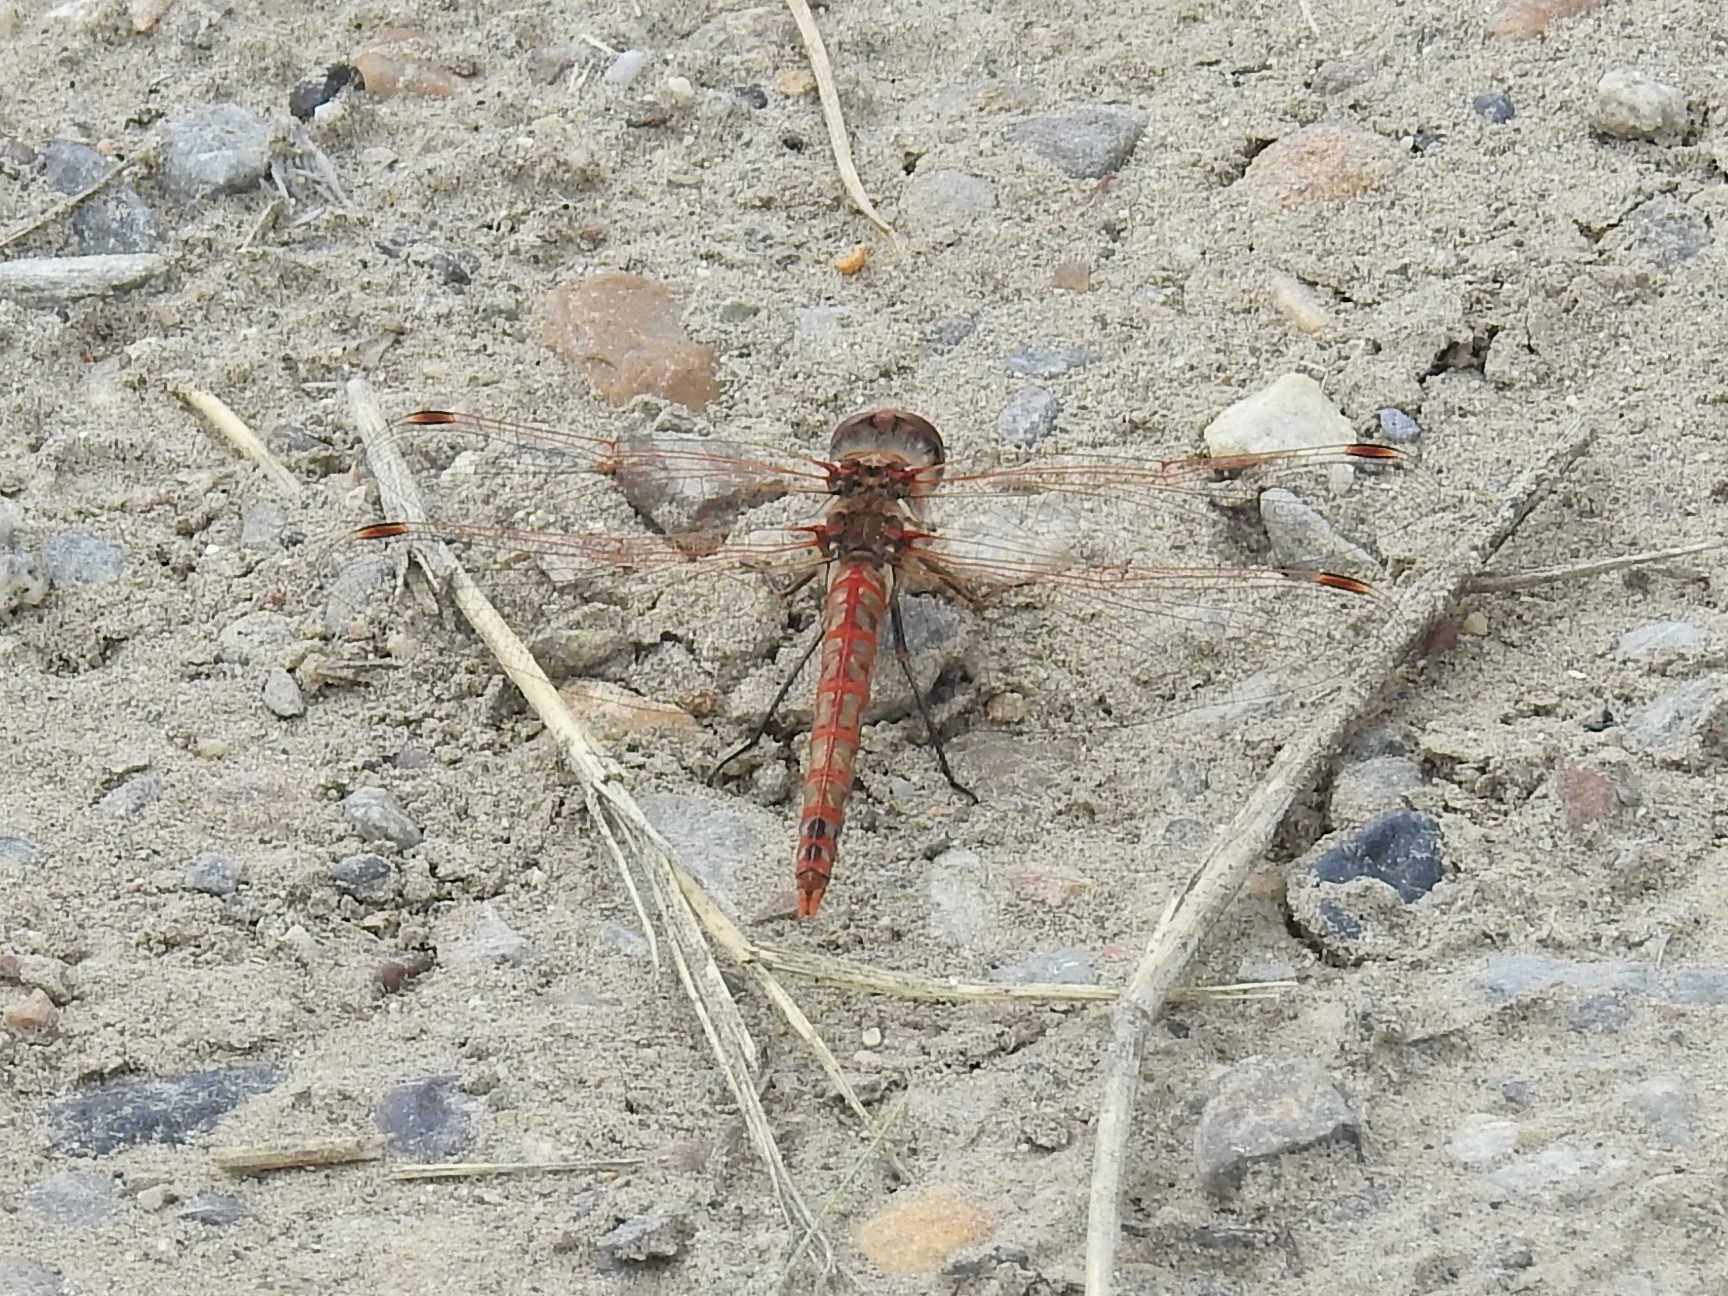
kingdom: Animalia
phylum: Arthropoda
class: Insecta
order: Odonata
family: Libellulidae
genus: Sympetrum
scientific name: Sympetrum corruptum
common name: Variegated meadowhawk
